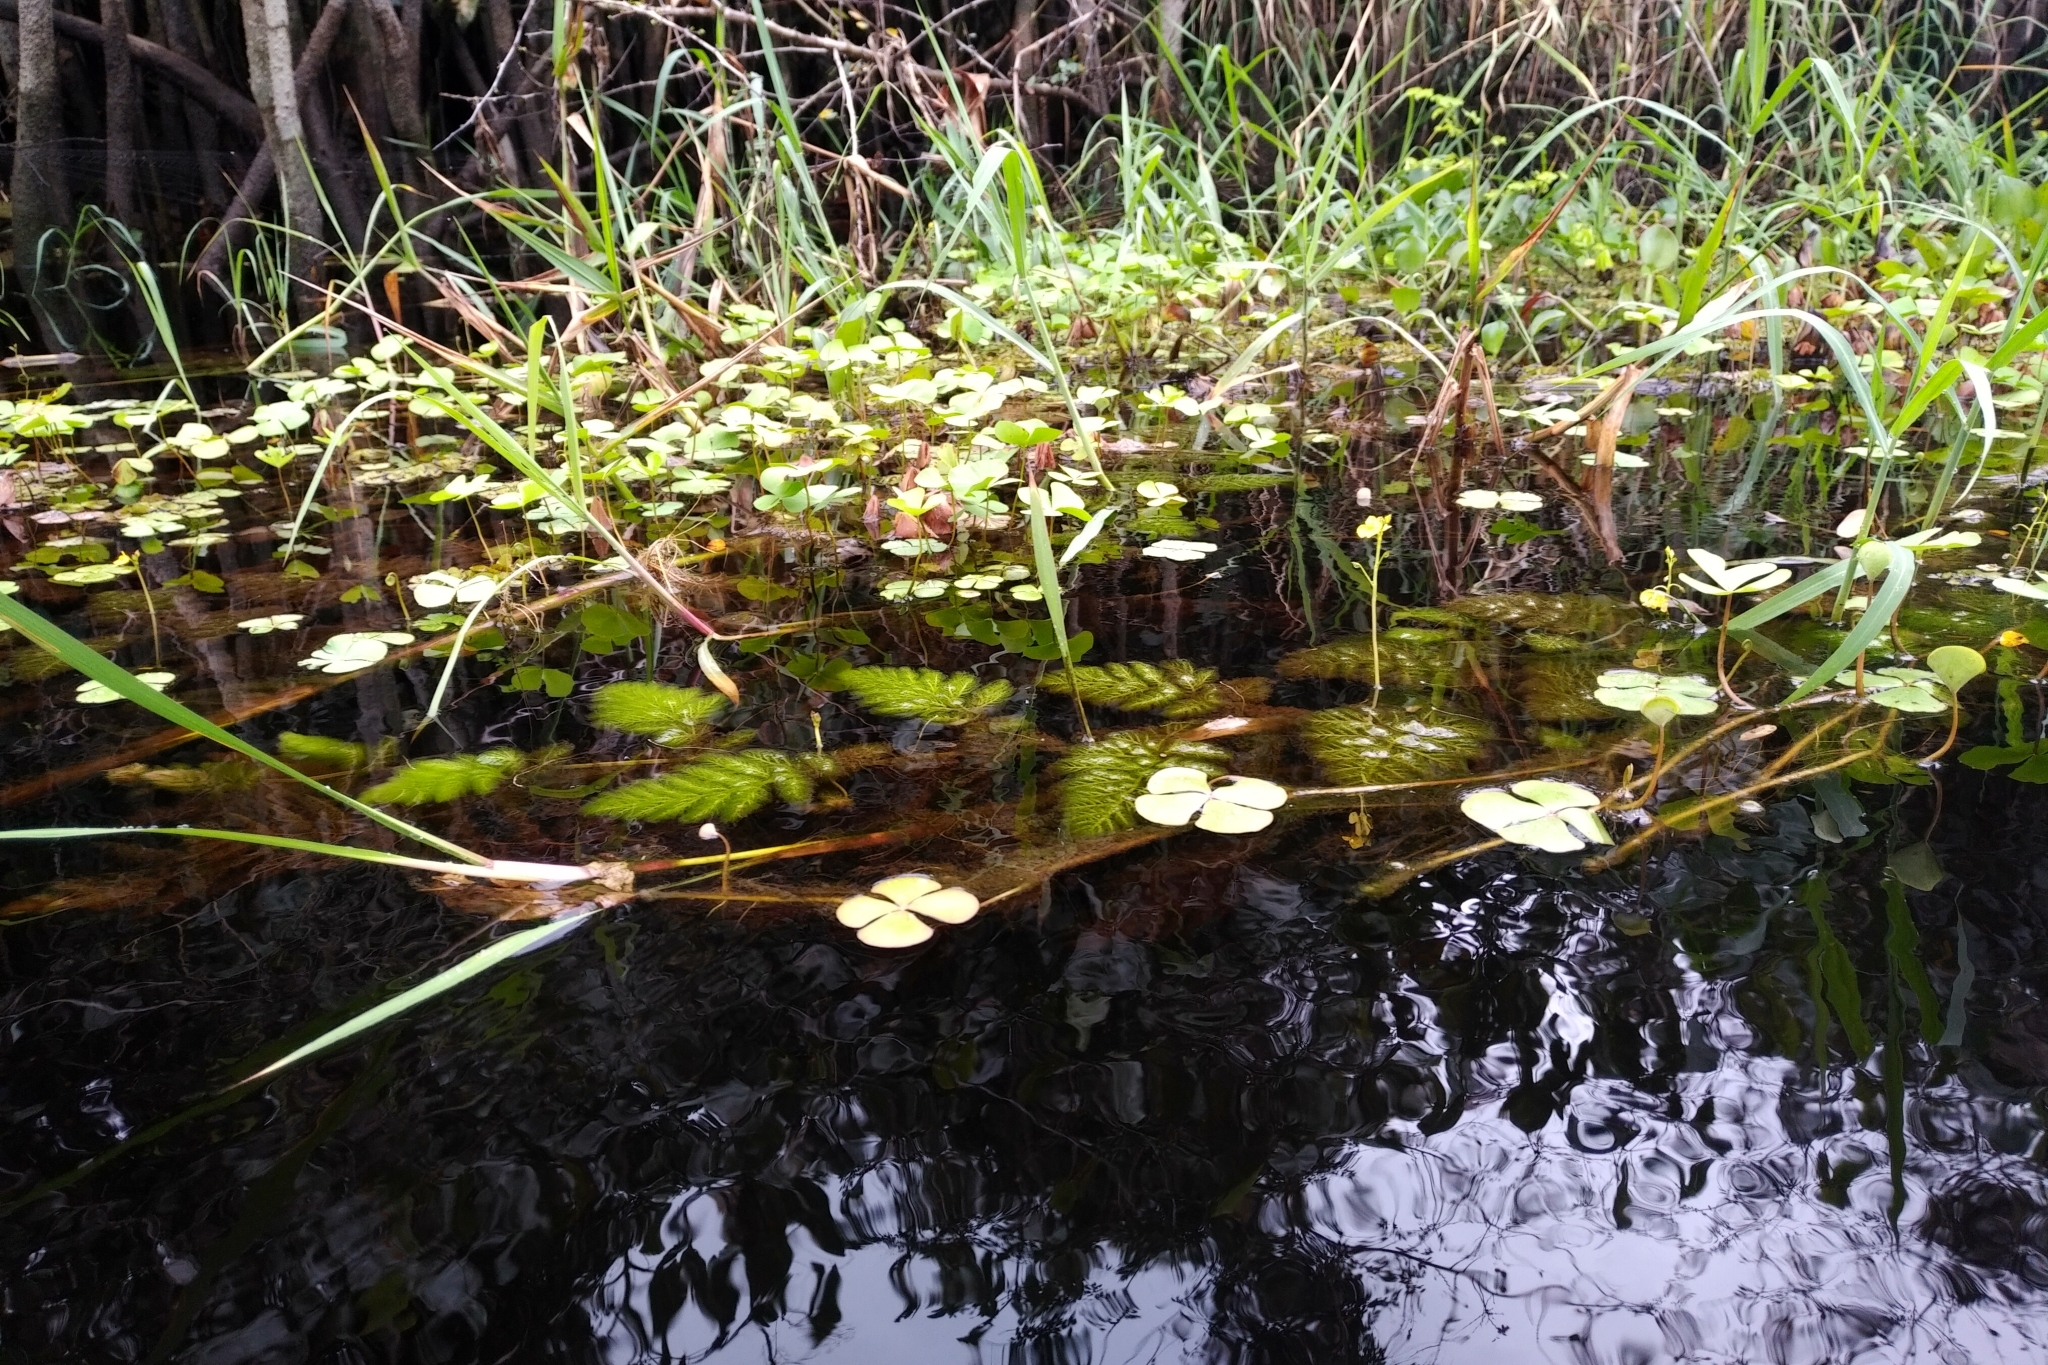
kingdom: Plantae
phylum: Tracheophyta
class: Magnoliopsida
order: Lamiales
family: Lentibulariaceae
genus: Utricularia
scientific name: Utricularia foliosa
